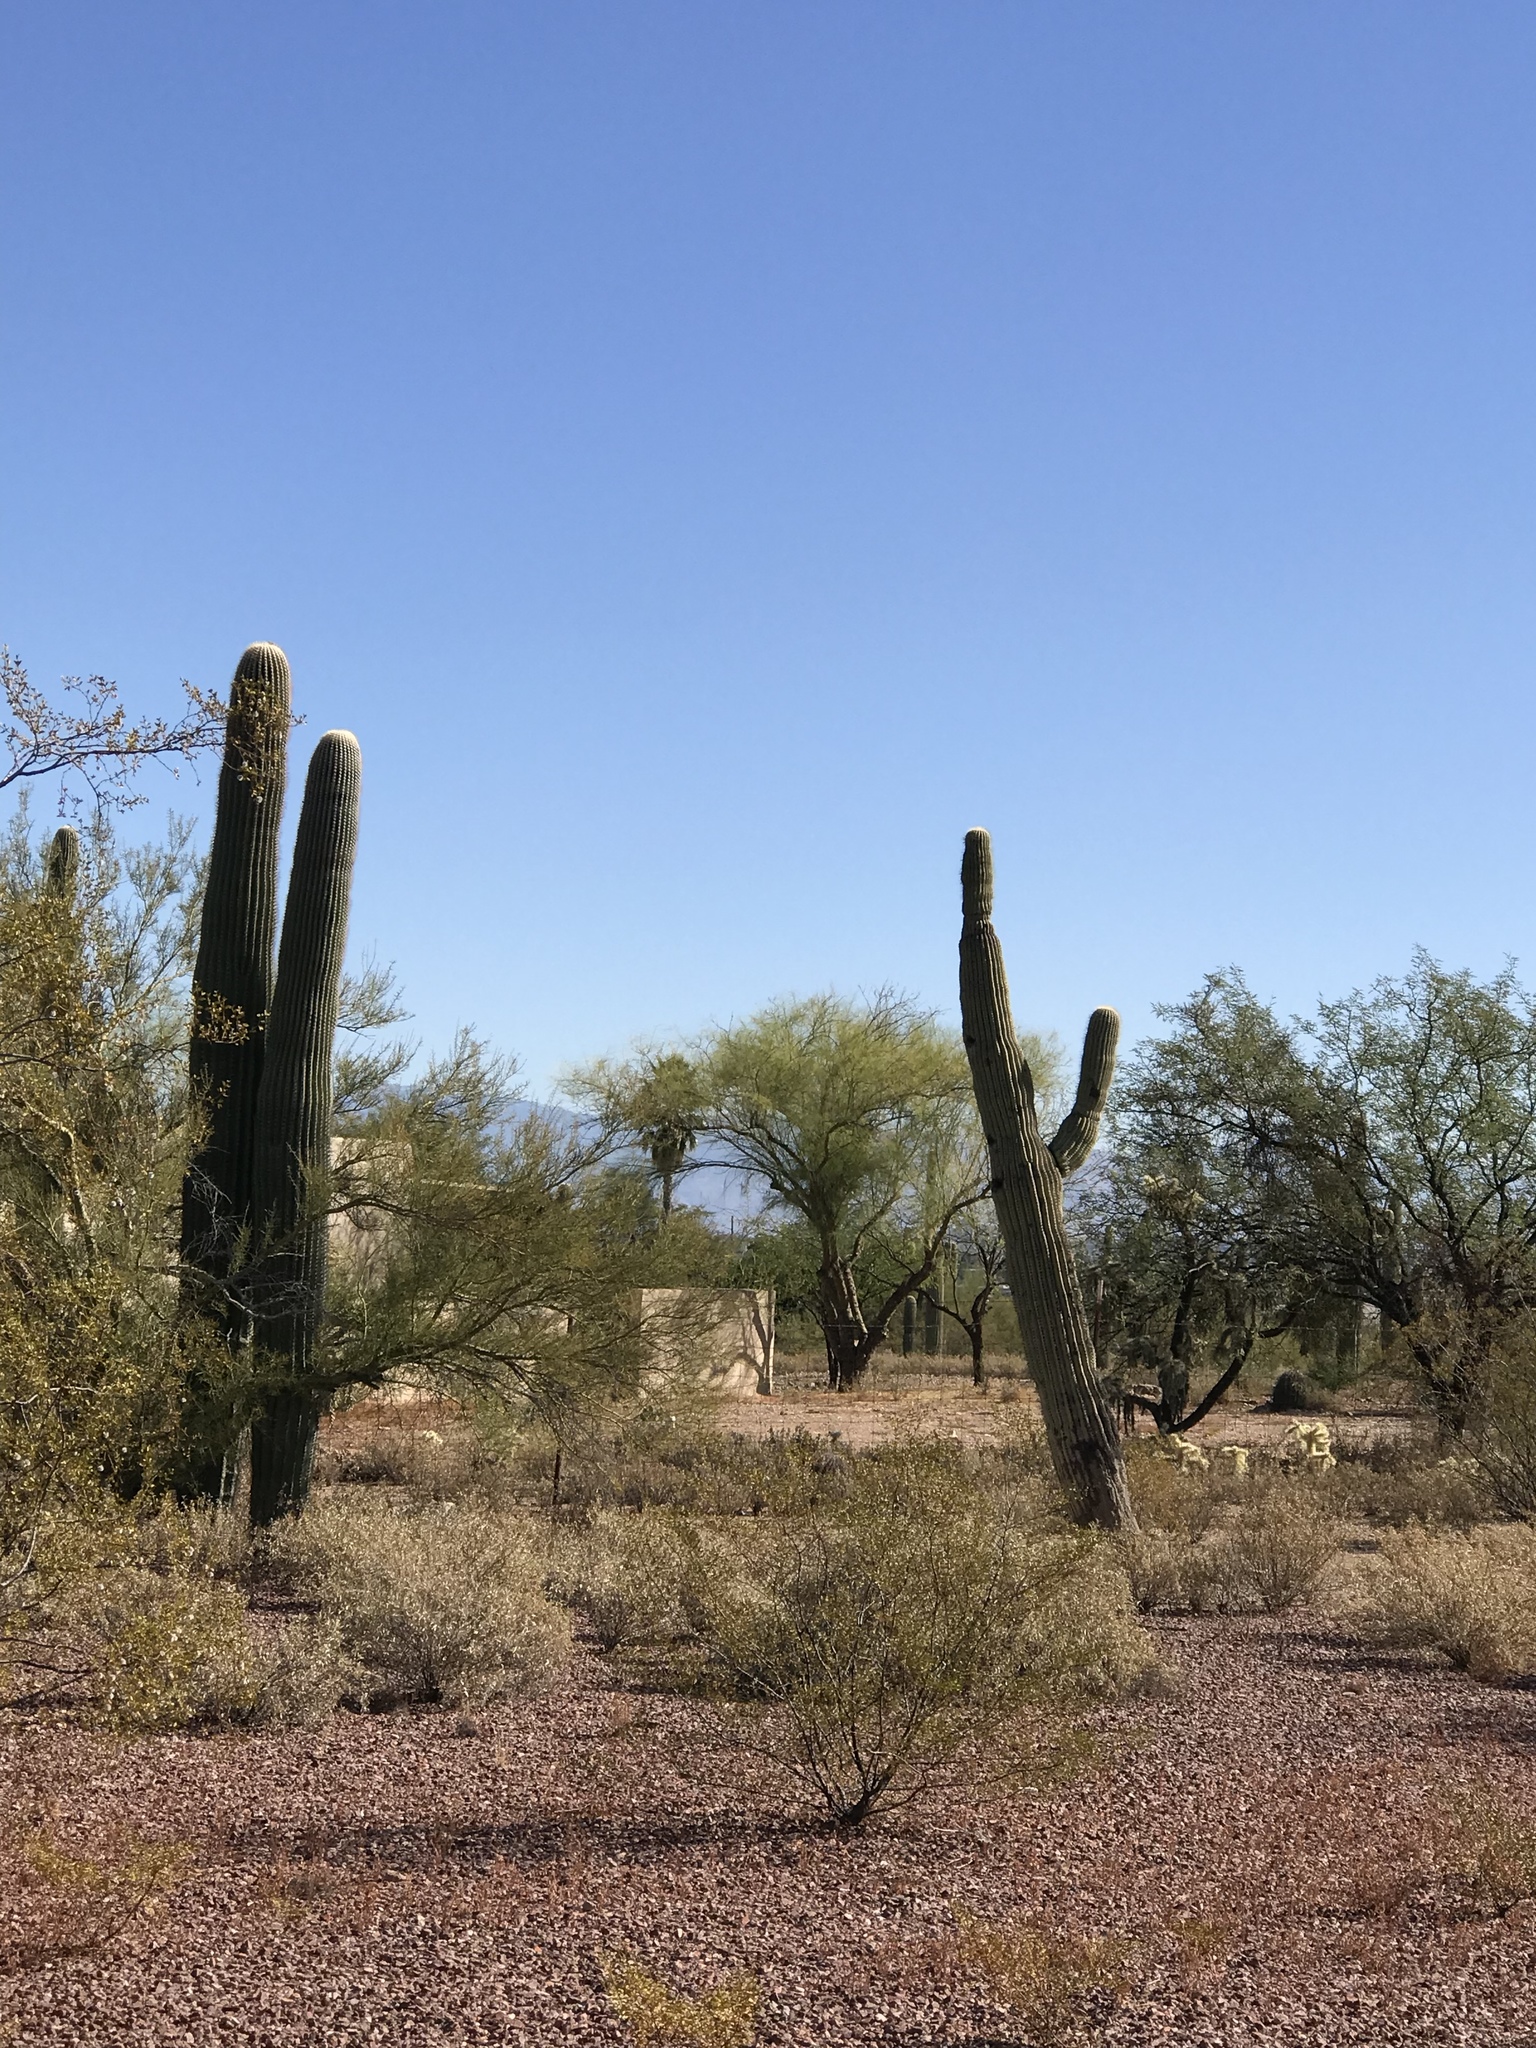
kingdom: Plantae
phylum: Tracheophyta
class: Magnoliopsida
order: Caryophyllales
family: Cactaceae
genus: Carnegiea
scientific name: Carnegiea gigantea
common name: Saguaro
